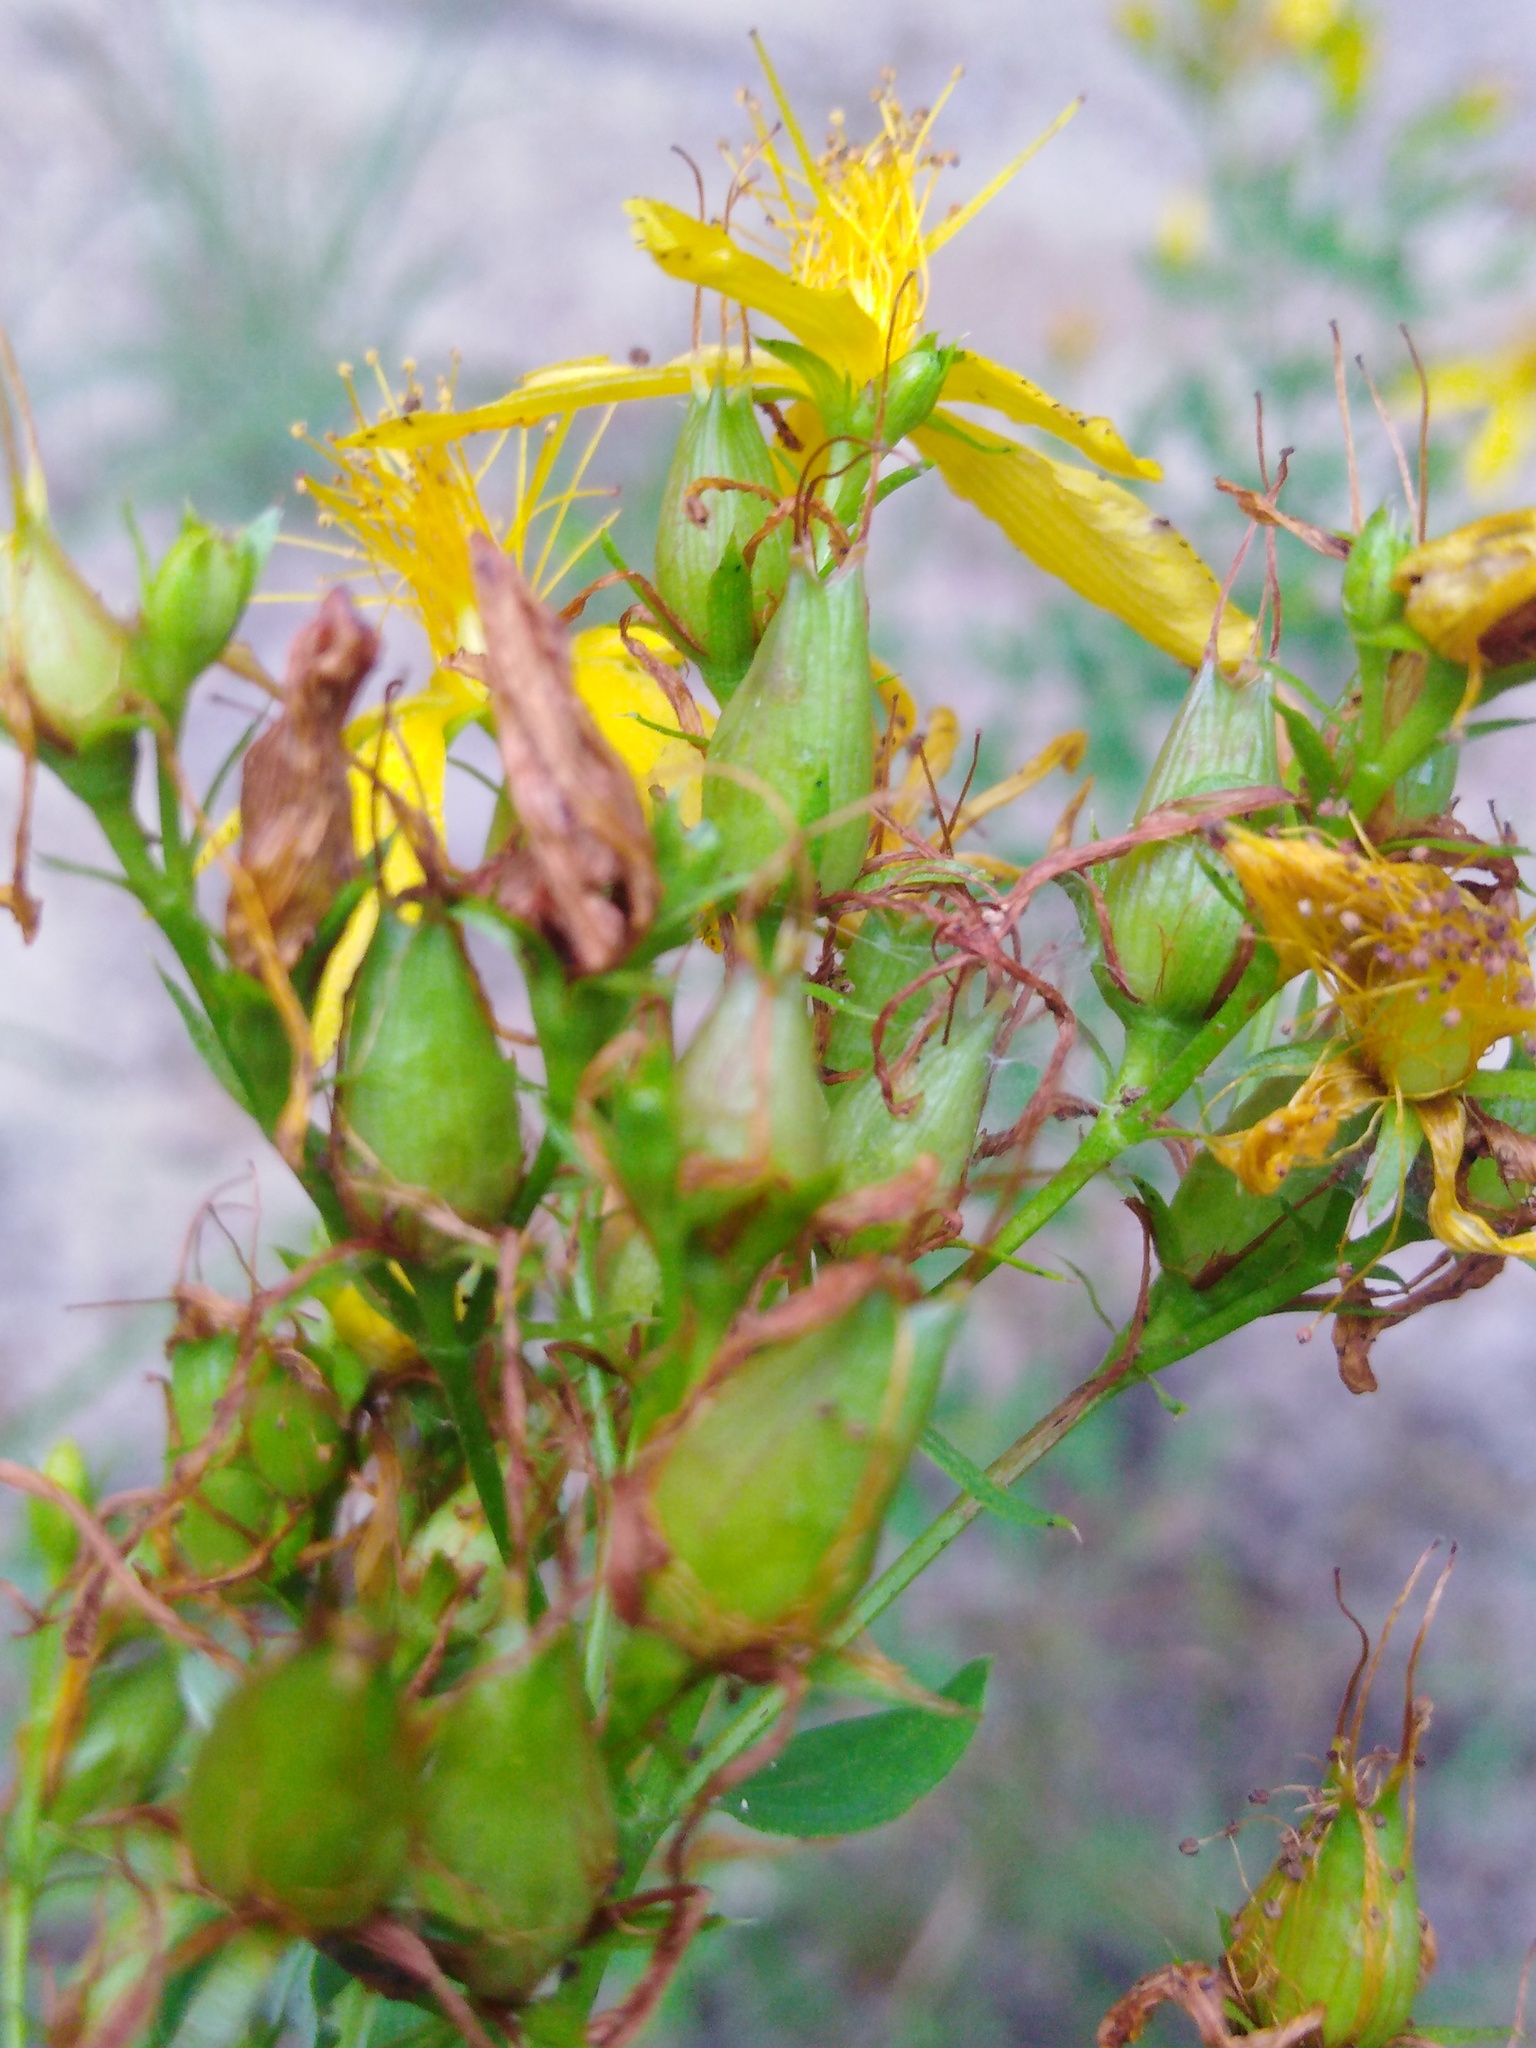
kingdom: Plantae
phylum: Tracheophyta
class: Magnoliopsida
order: Malpighiales
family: Hypericaceae
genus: Hypericum
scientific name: Hypericum perforatum
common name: Common st. johnswort
